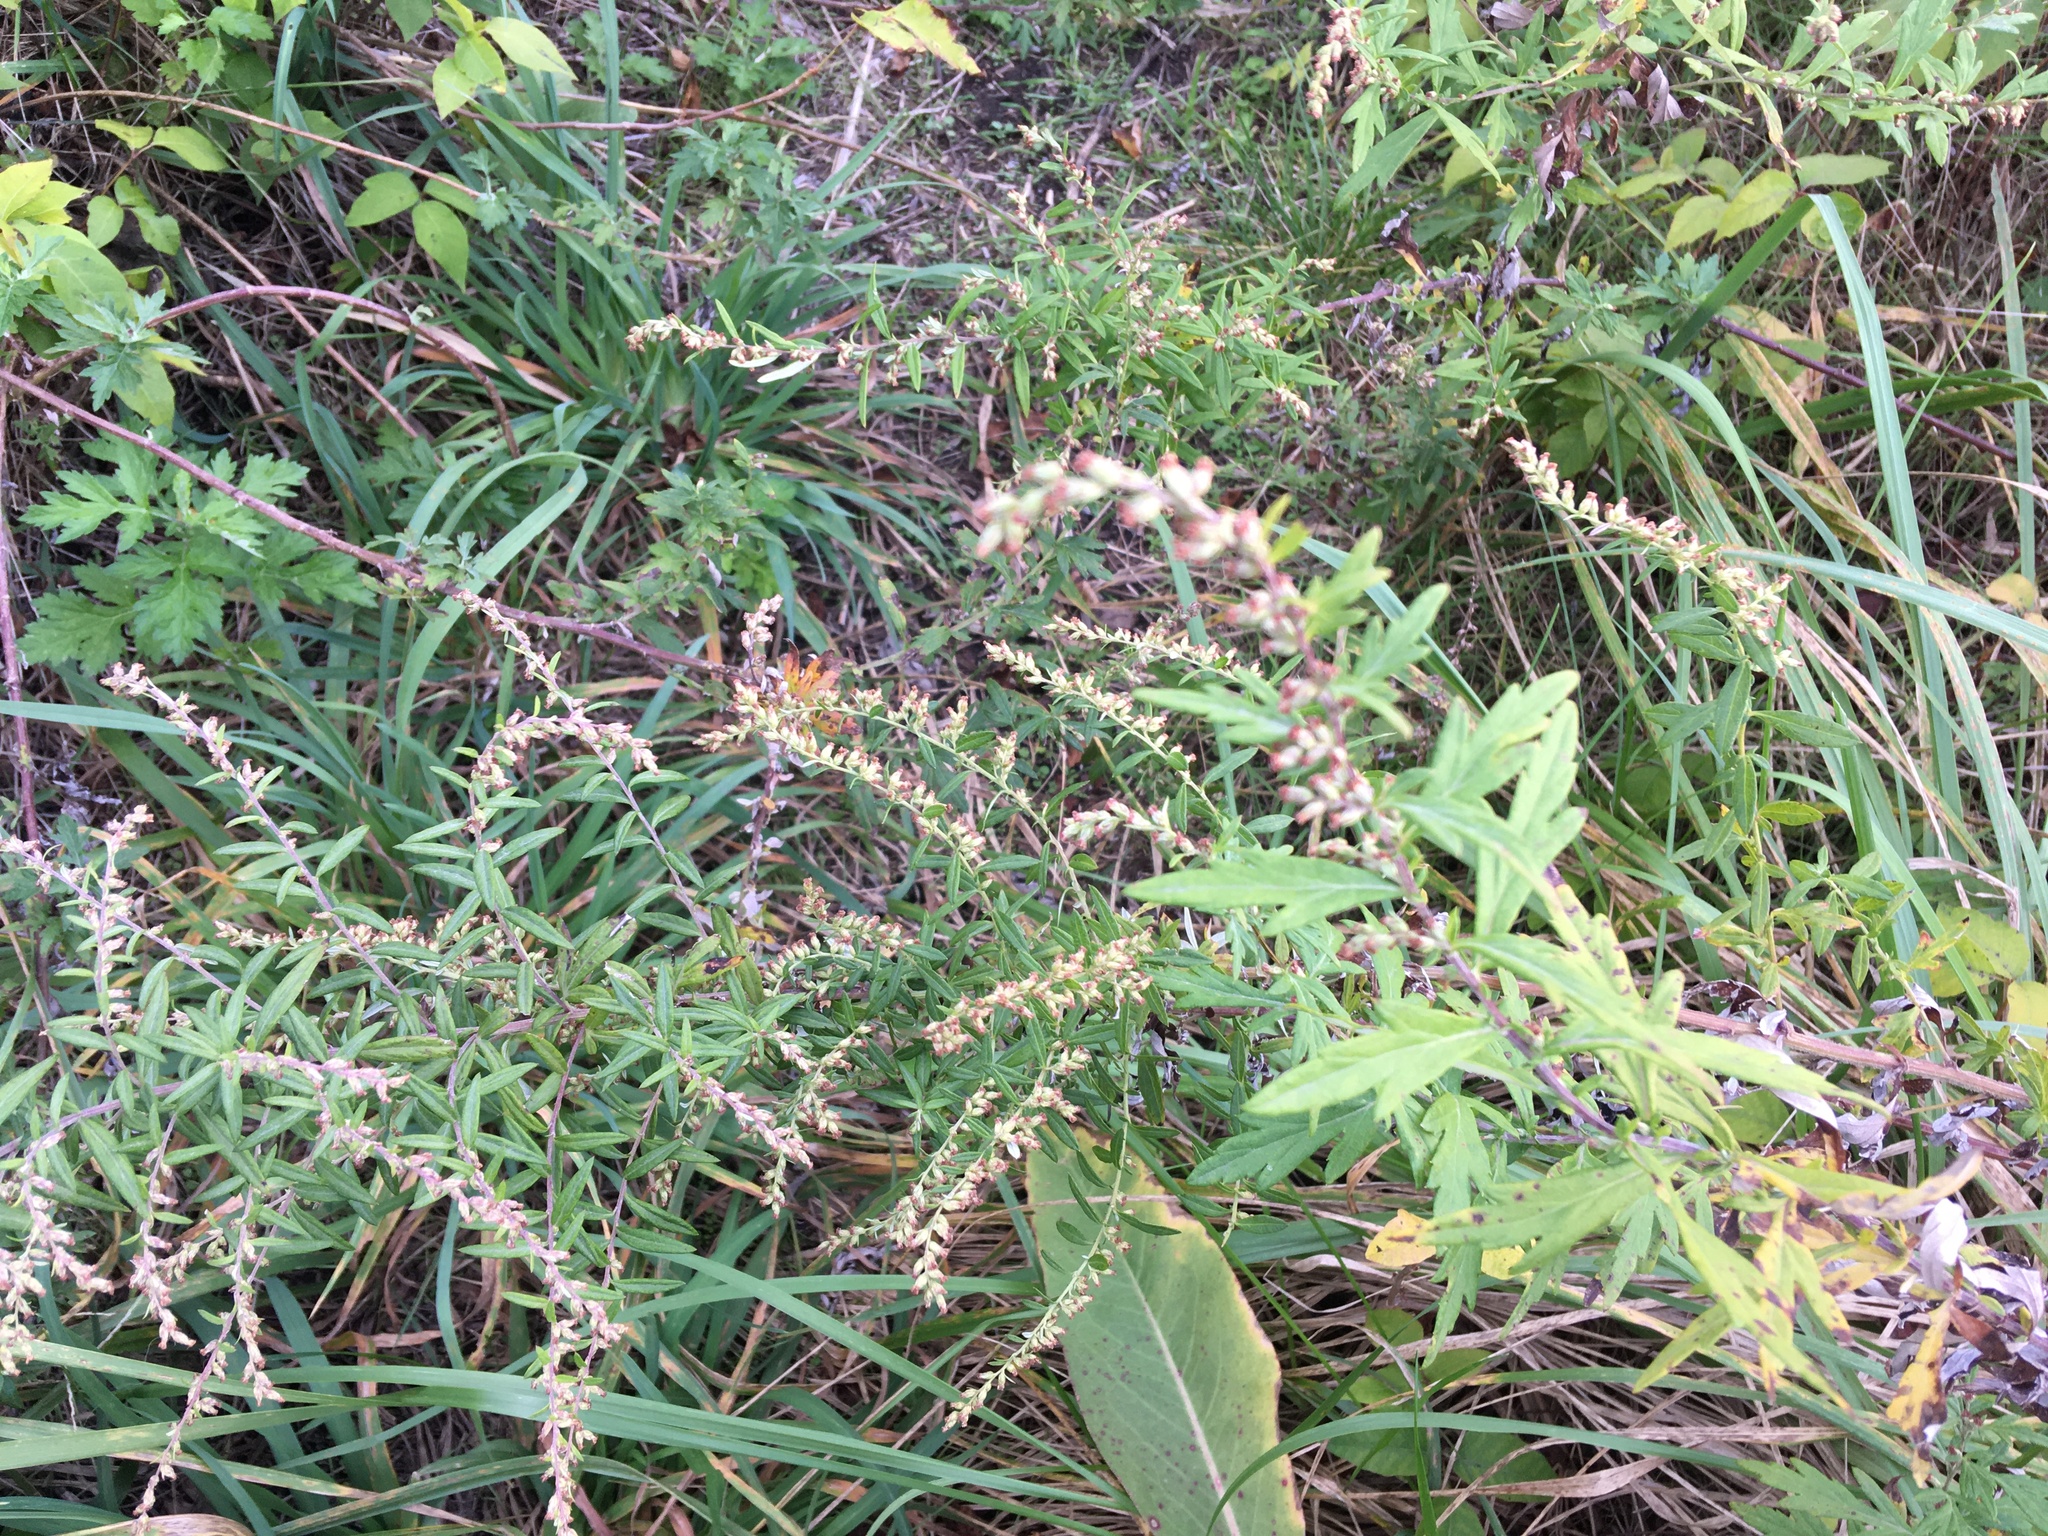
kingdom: Plantae
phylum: Tracheophyta
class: Magnoliopsida
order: Asterales
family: Asteraceae
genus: Artemisia
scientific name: Artemisia vulgaris
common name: Mugwort
